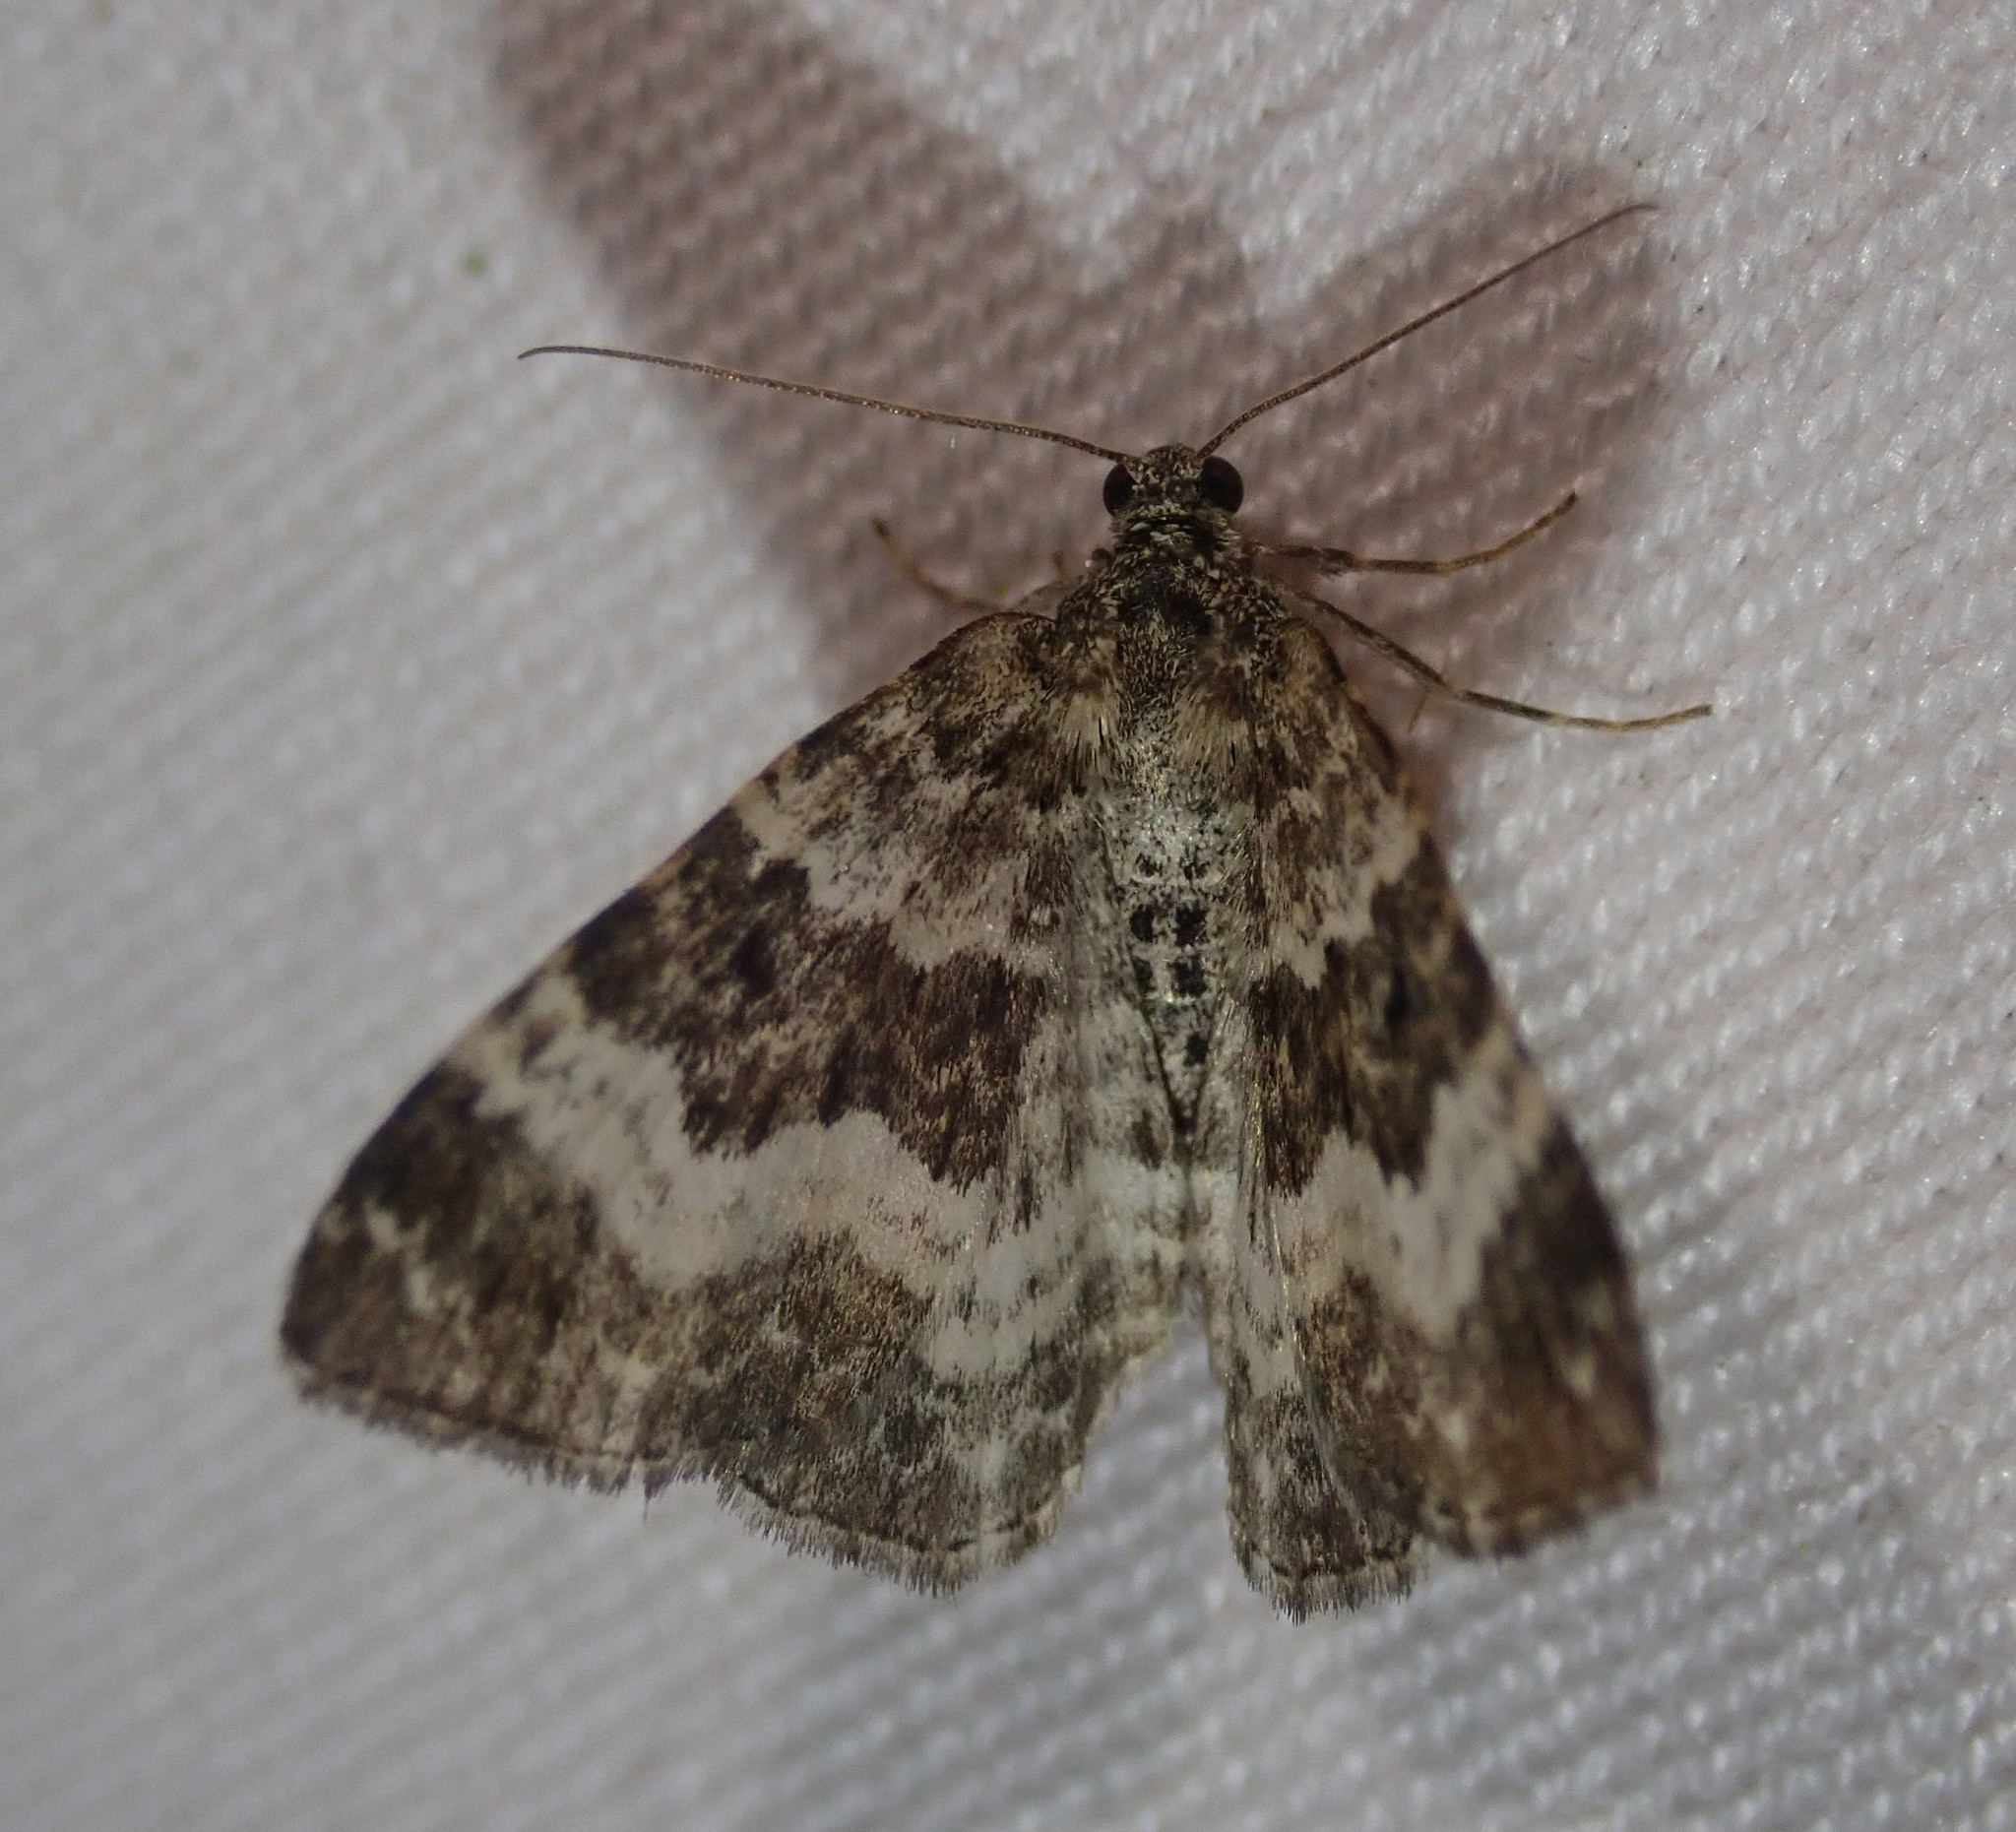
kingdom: Animalia
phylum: Arthropoda
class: Insecta
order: Lepidoptera
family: Geometridae
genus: Epirrhoe
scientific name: Epirrhoe alternata
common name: Common carpet
